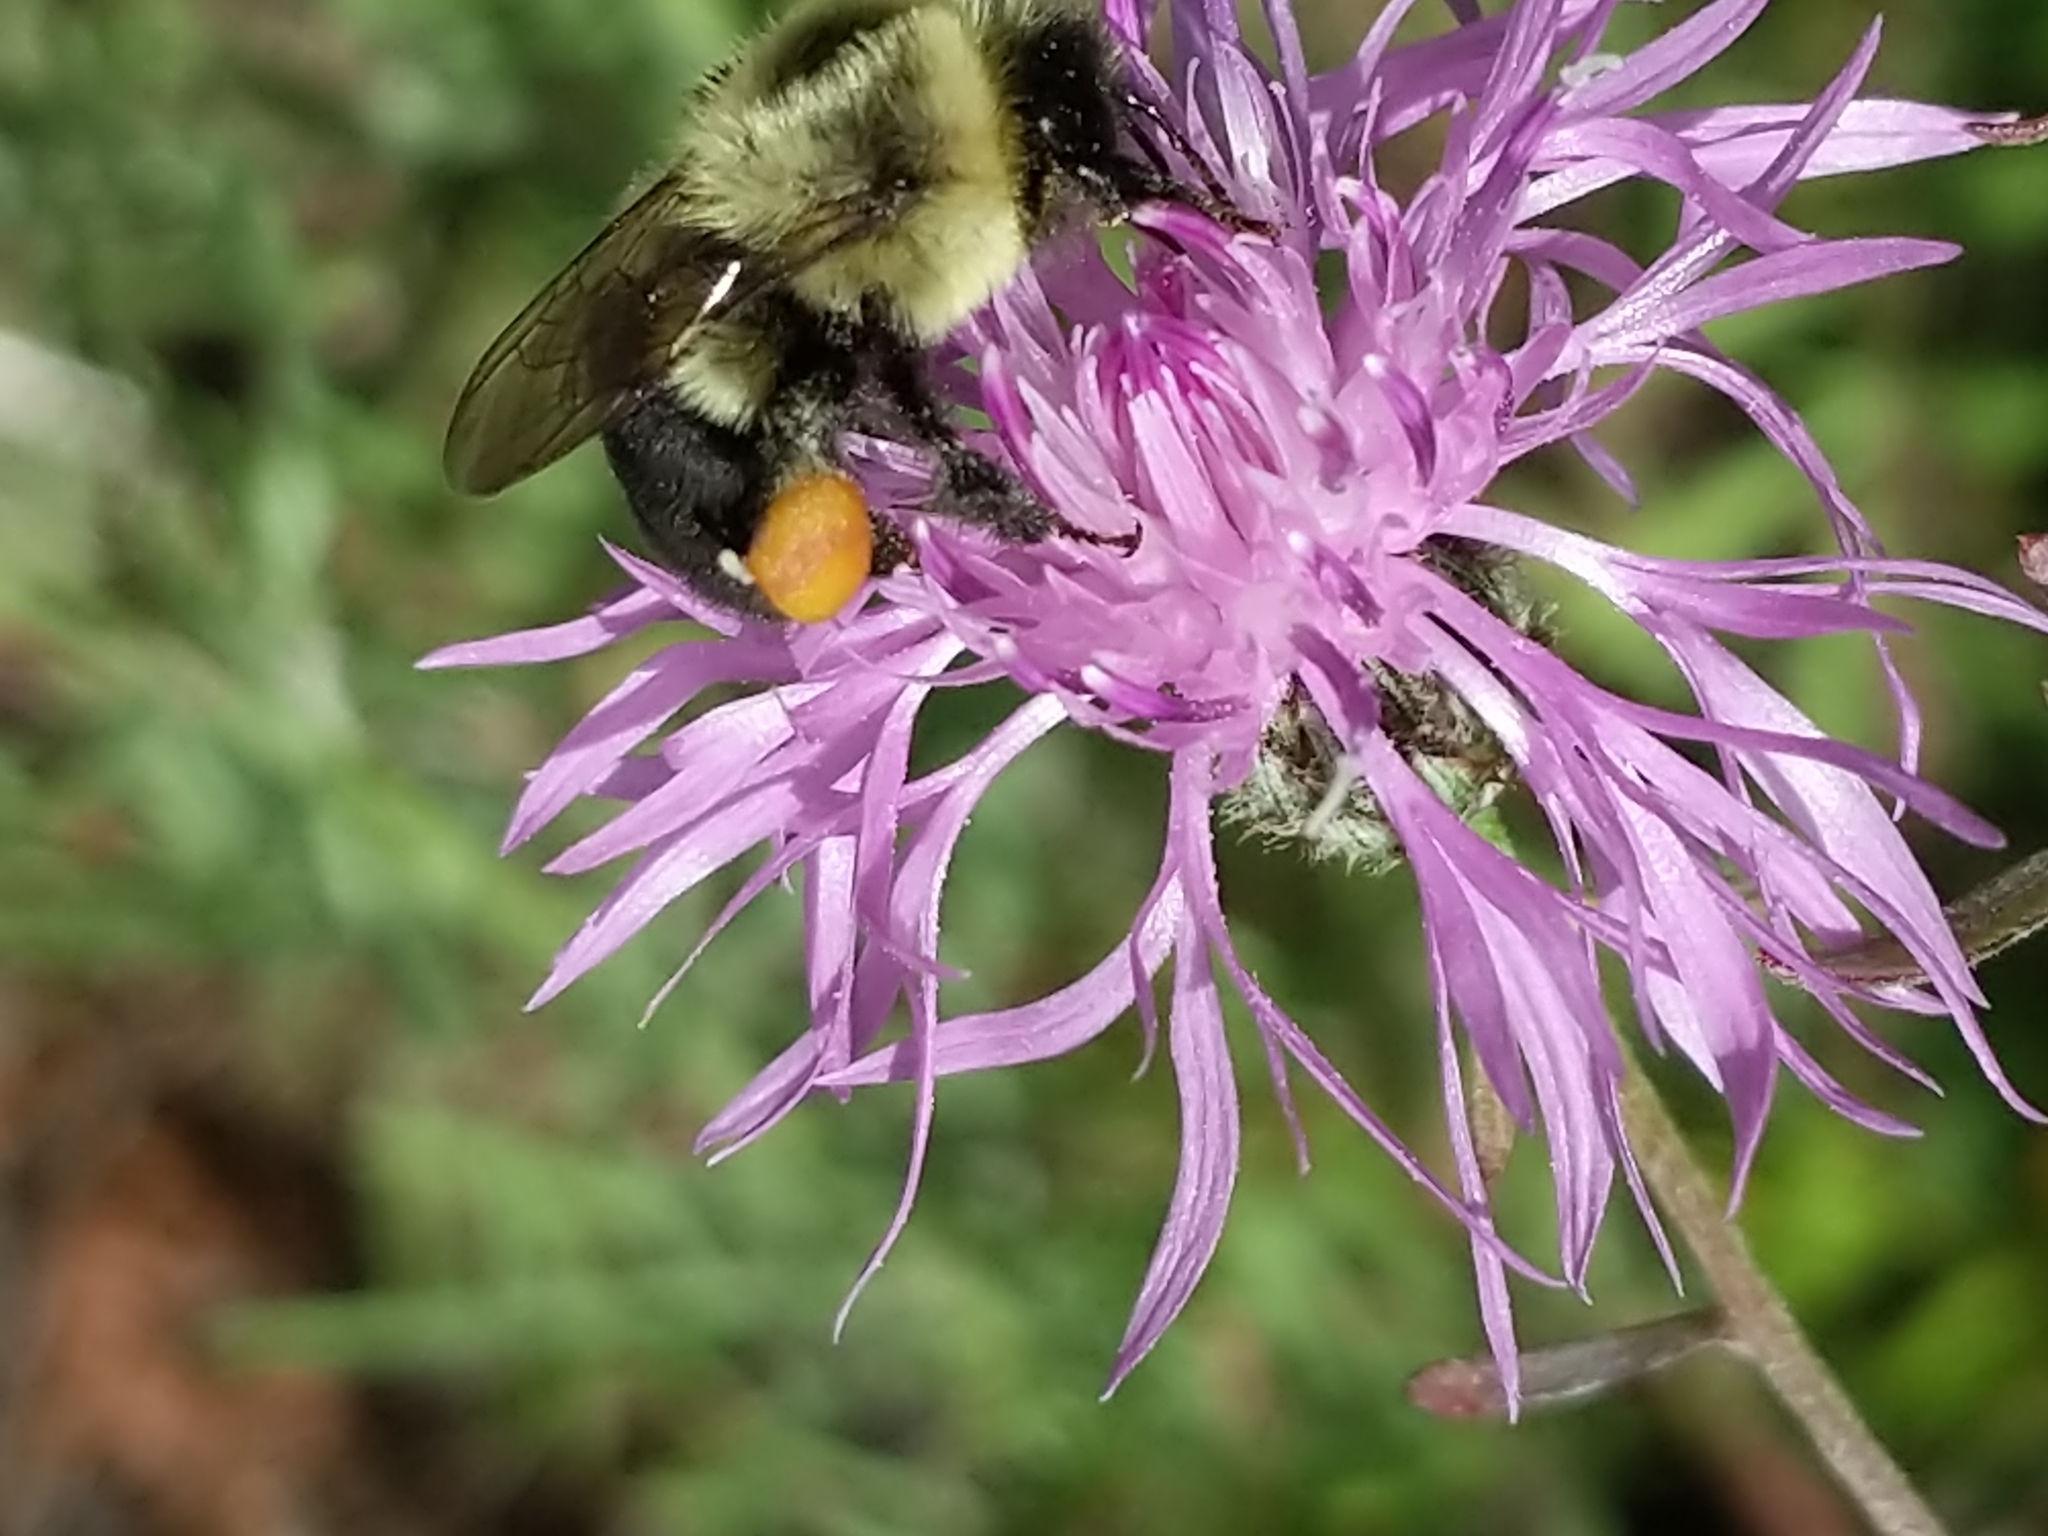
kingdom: Animalia
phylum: Arthropoda
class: Insecta
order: Hymenoptera
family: Apidae
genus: Bombus
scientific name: Bombus impatiens
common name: Common eastern bumble bee
